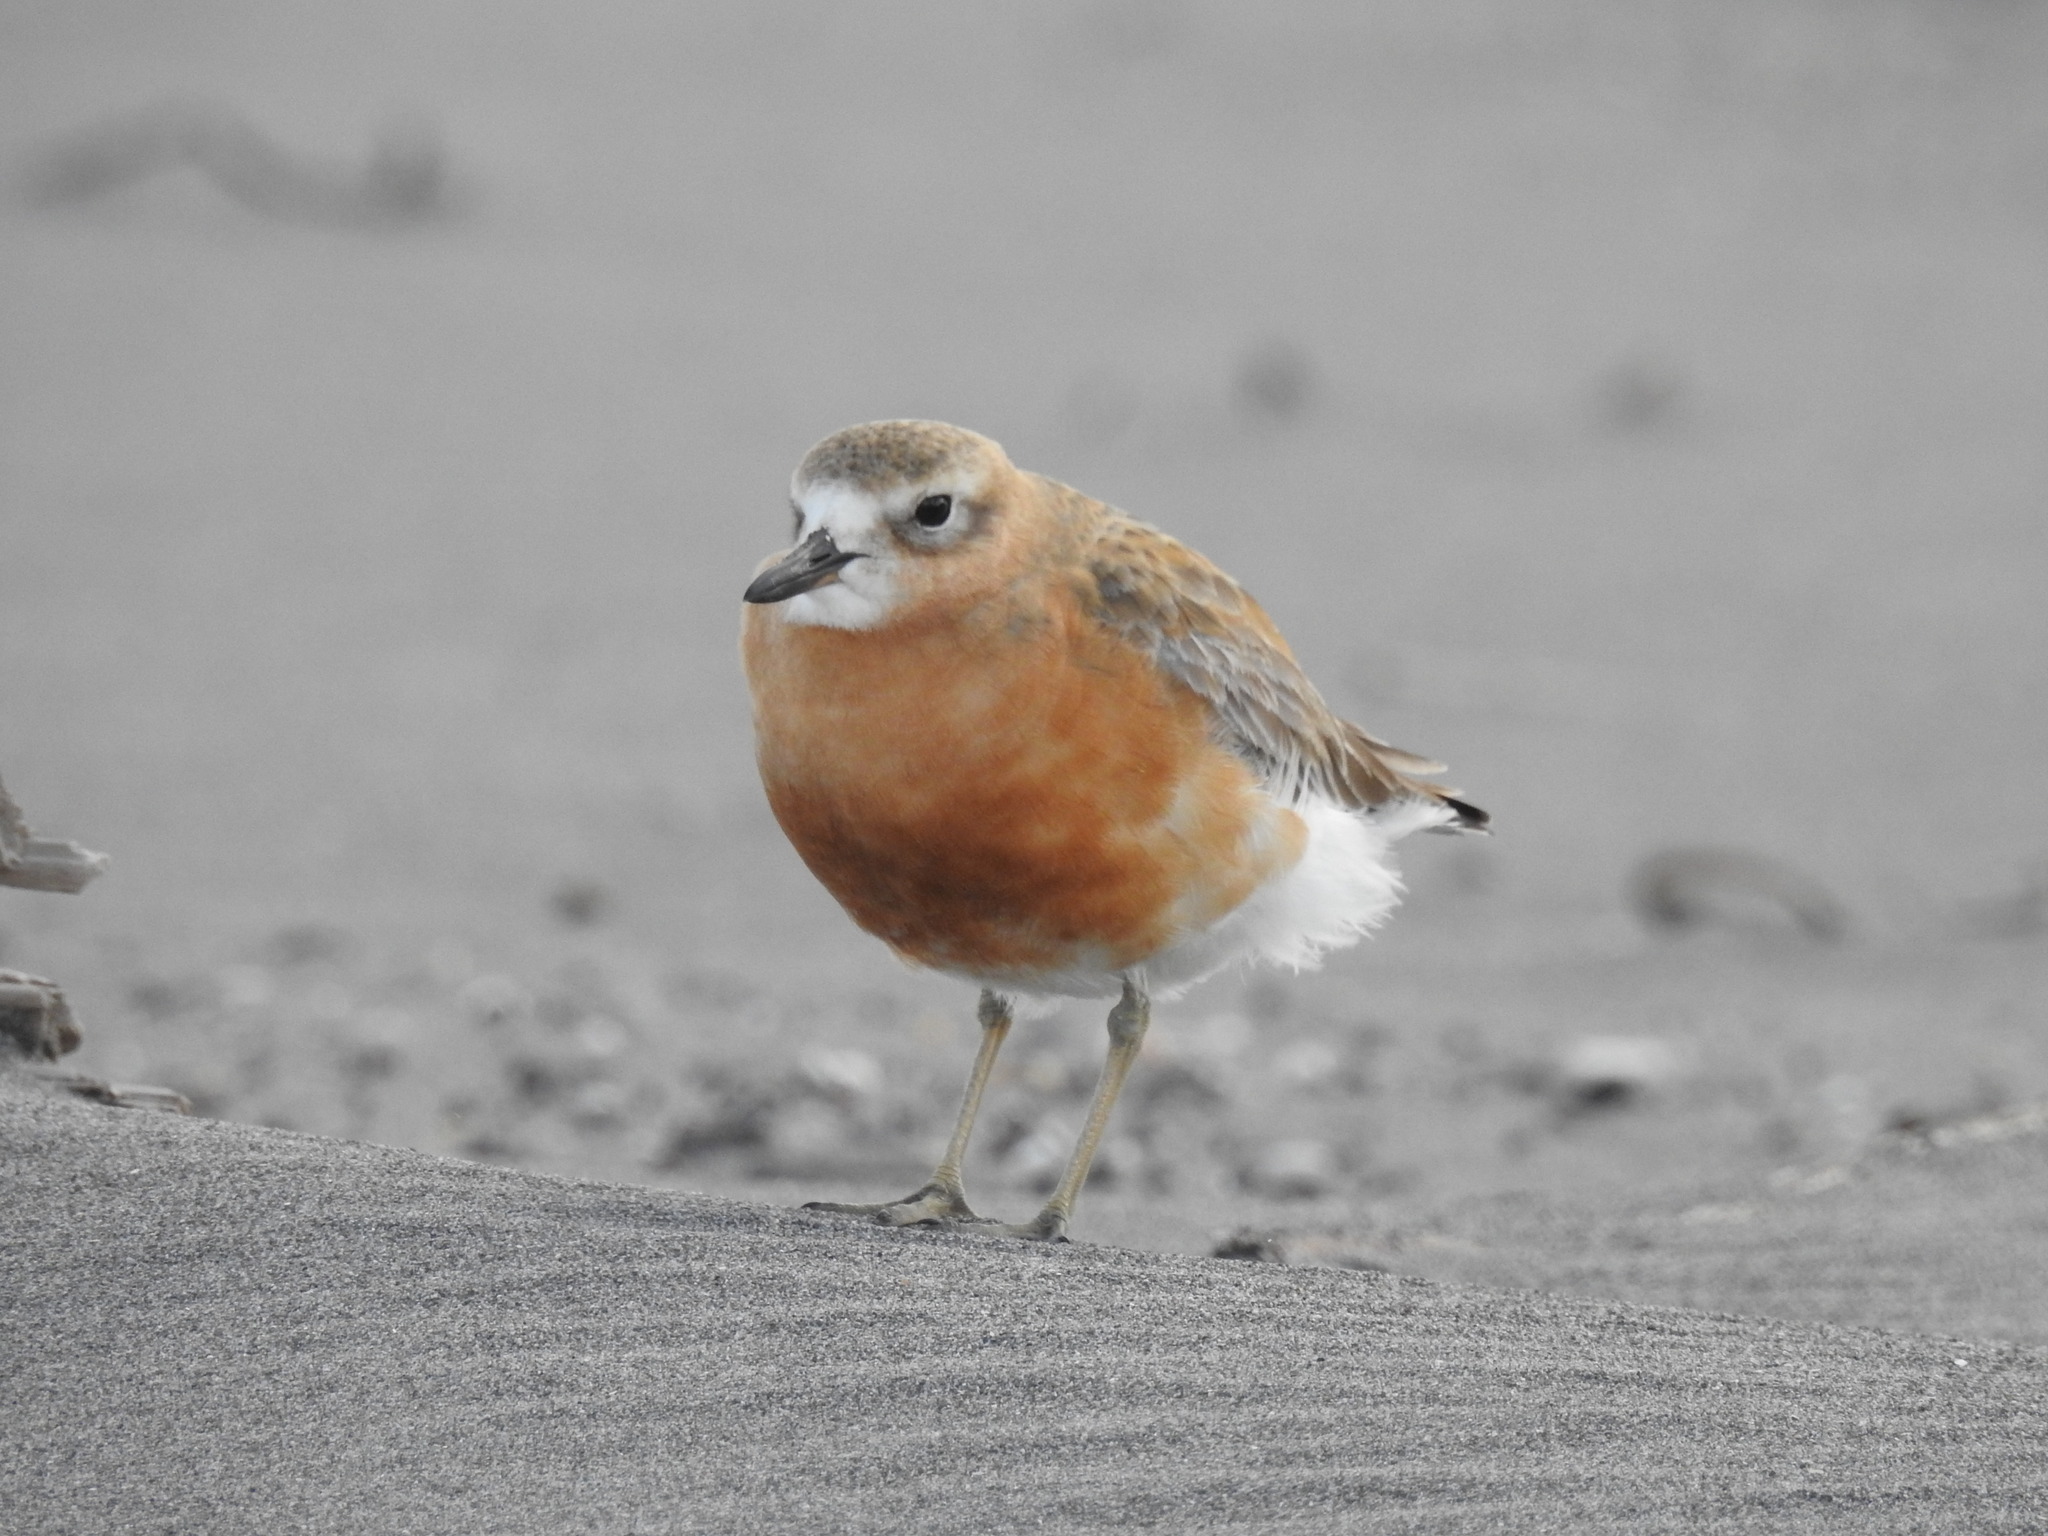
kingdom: Animalia
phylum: Chordata
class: Aves
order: Charadriiformes
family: Charadriidae
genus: Anarhynchus
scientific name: Anarhynchus
